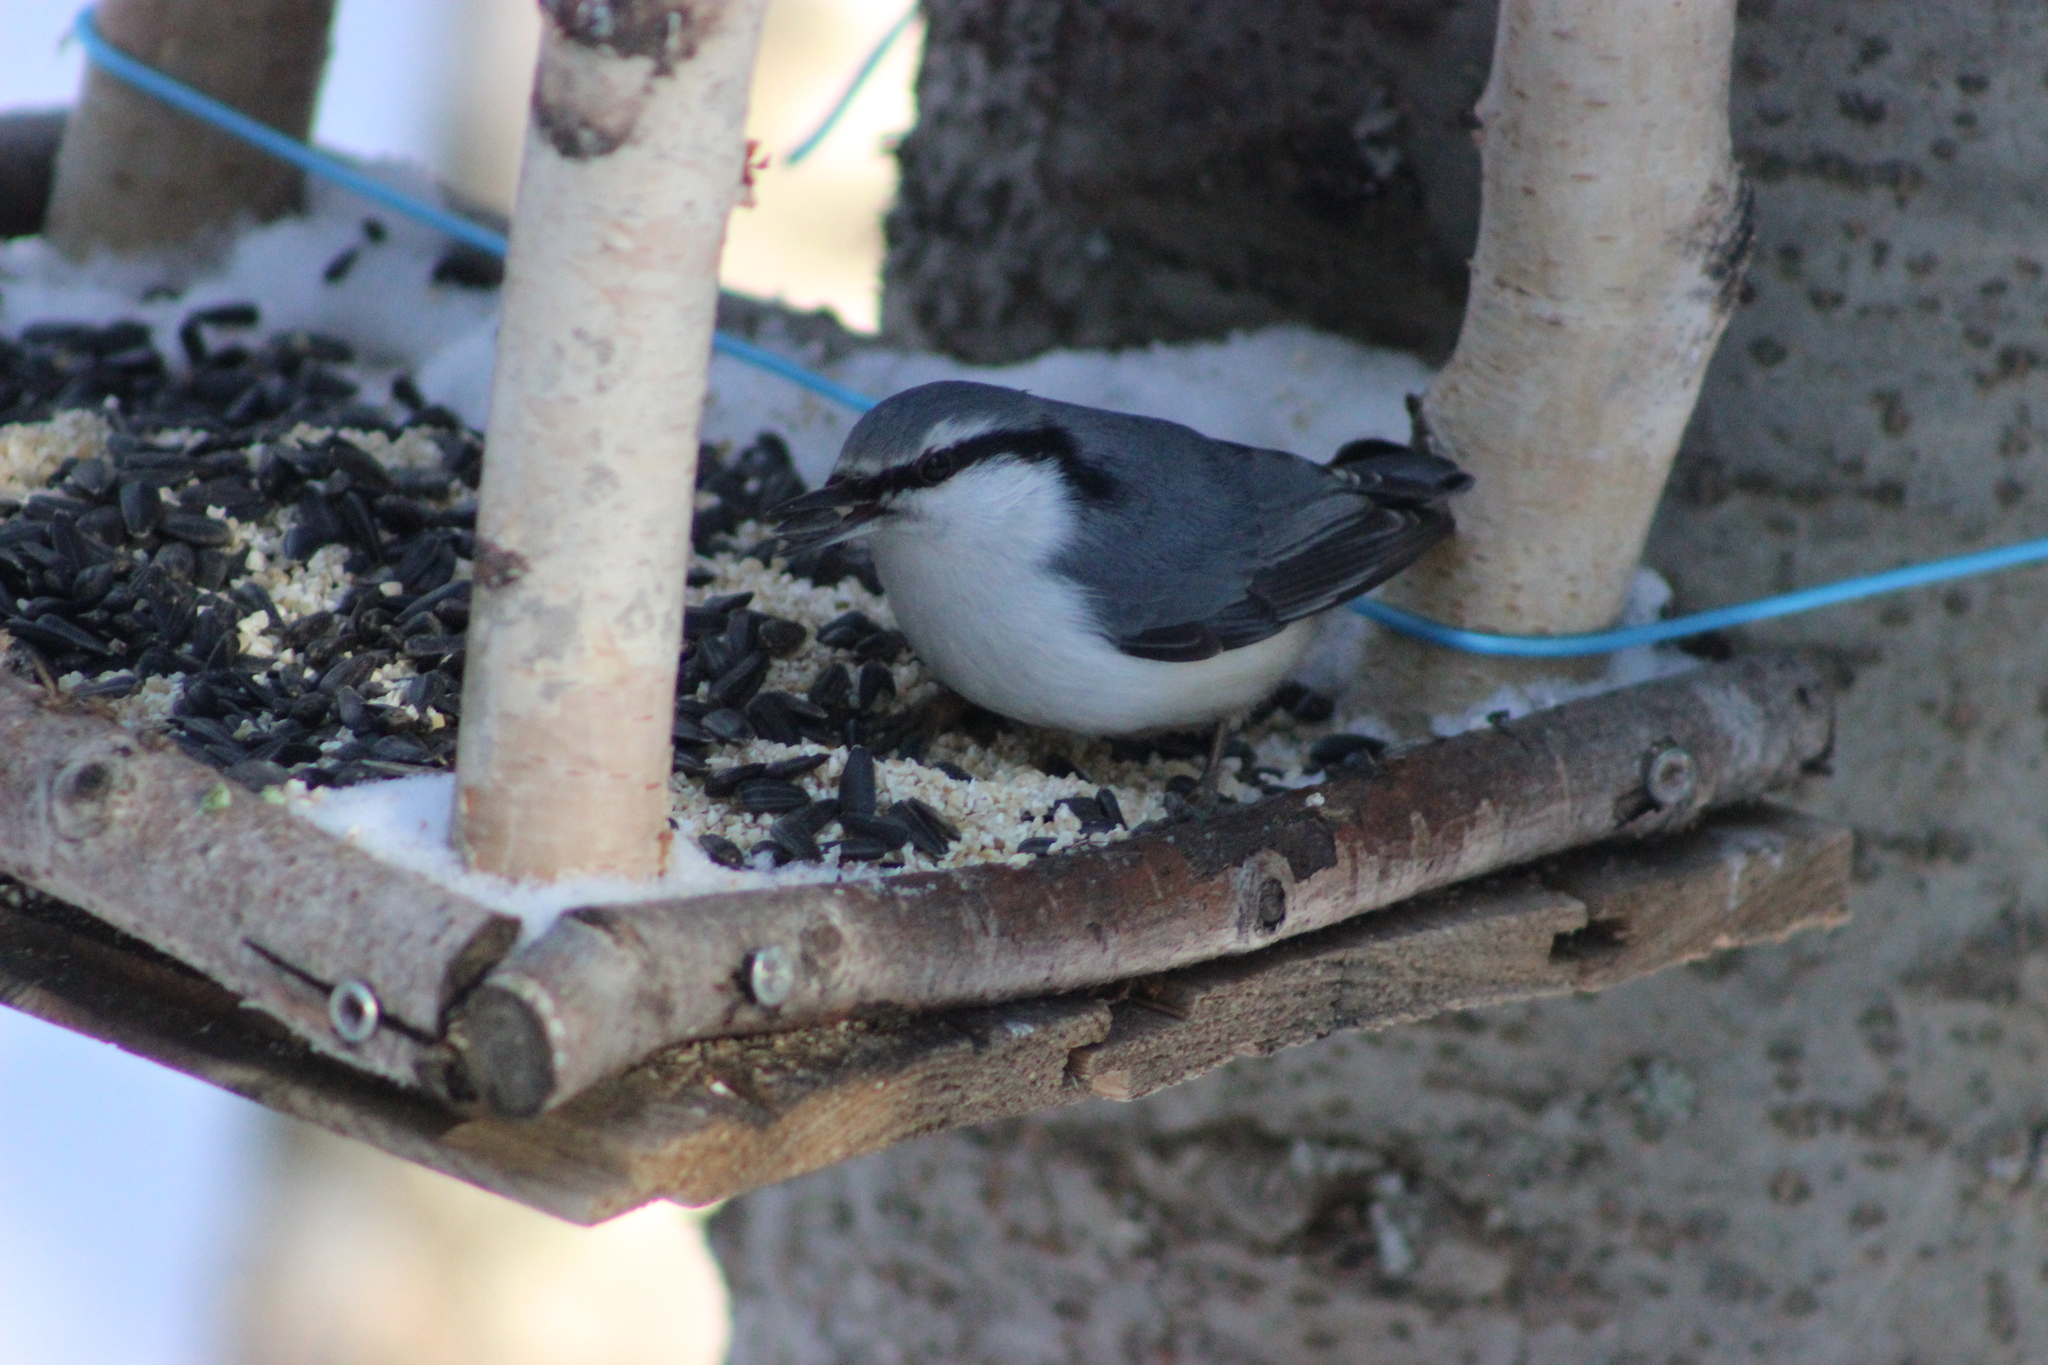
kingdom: Animalia
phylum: Chordata
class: Aves
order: Passeriformes
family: Sittidae
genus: Sitta
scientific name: Sitta europaea
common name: Eurasian nuthatch
